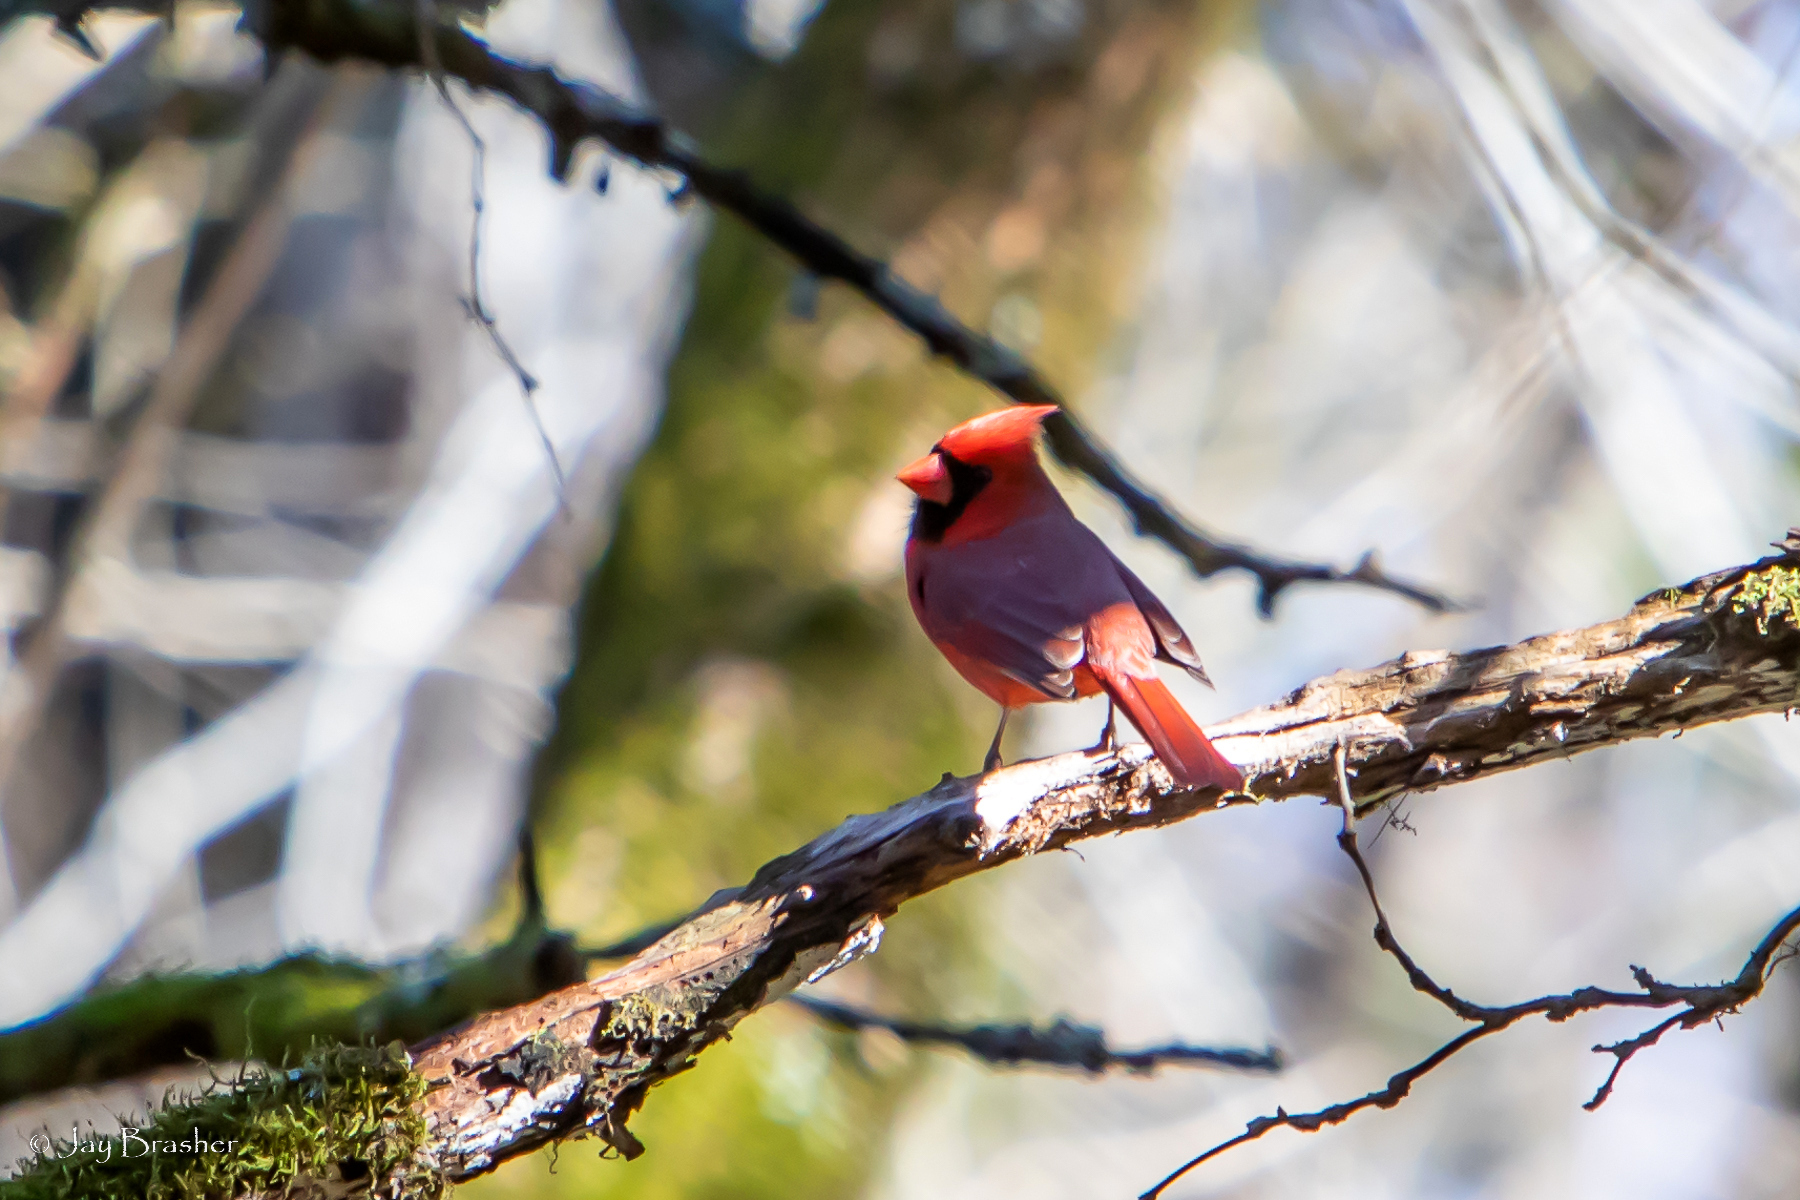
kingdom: Animalia
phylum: Chordata
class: Aves
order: Passeriformes
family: Cardinalidae
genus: Cardinalis
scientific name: Cardinalis cardinalis
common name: Northern cardinal
